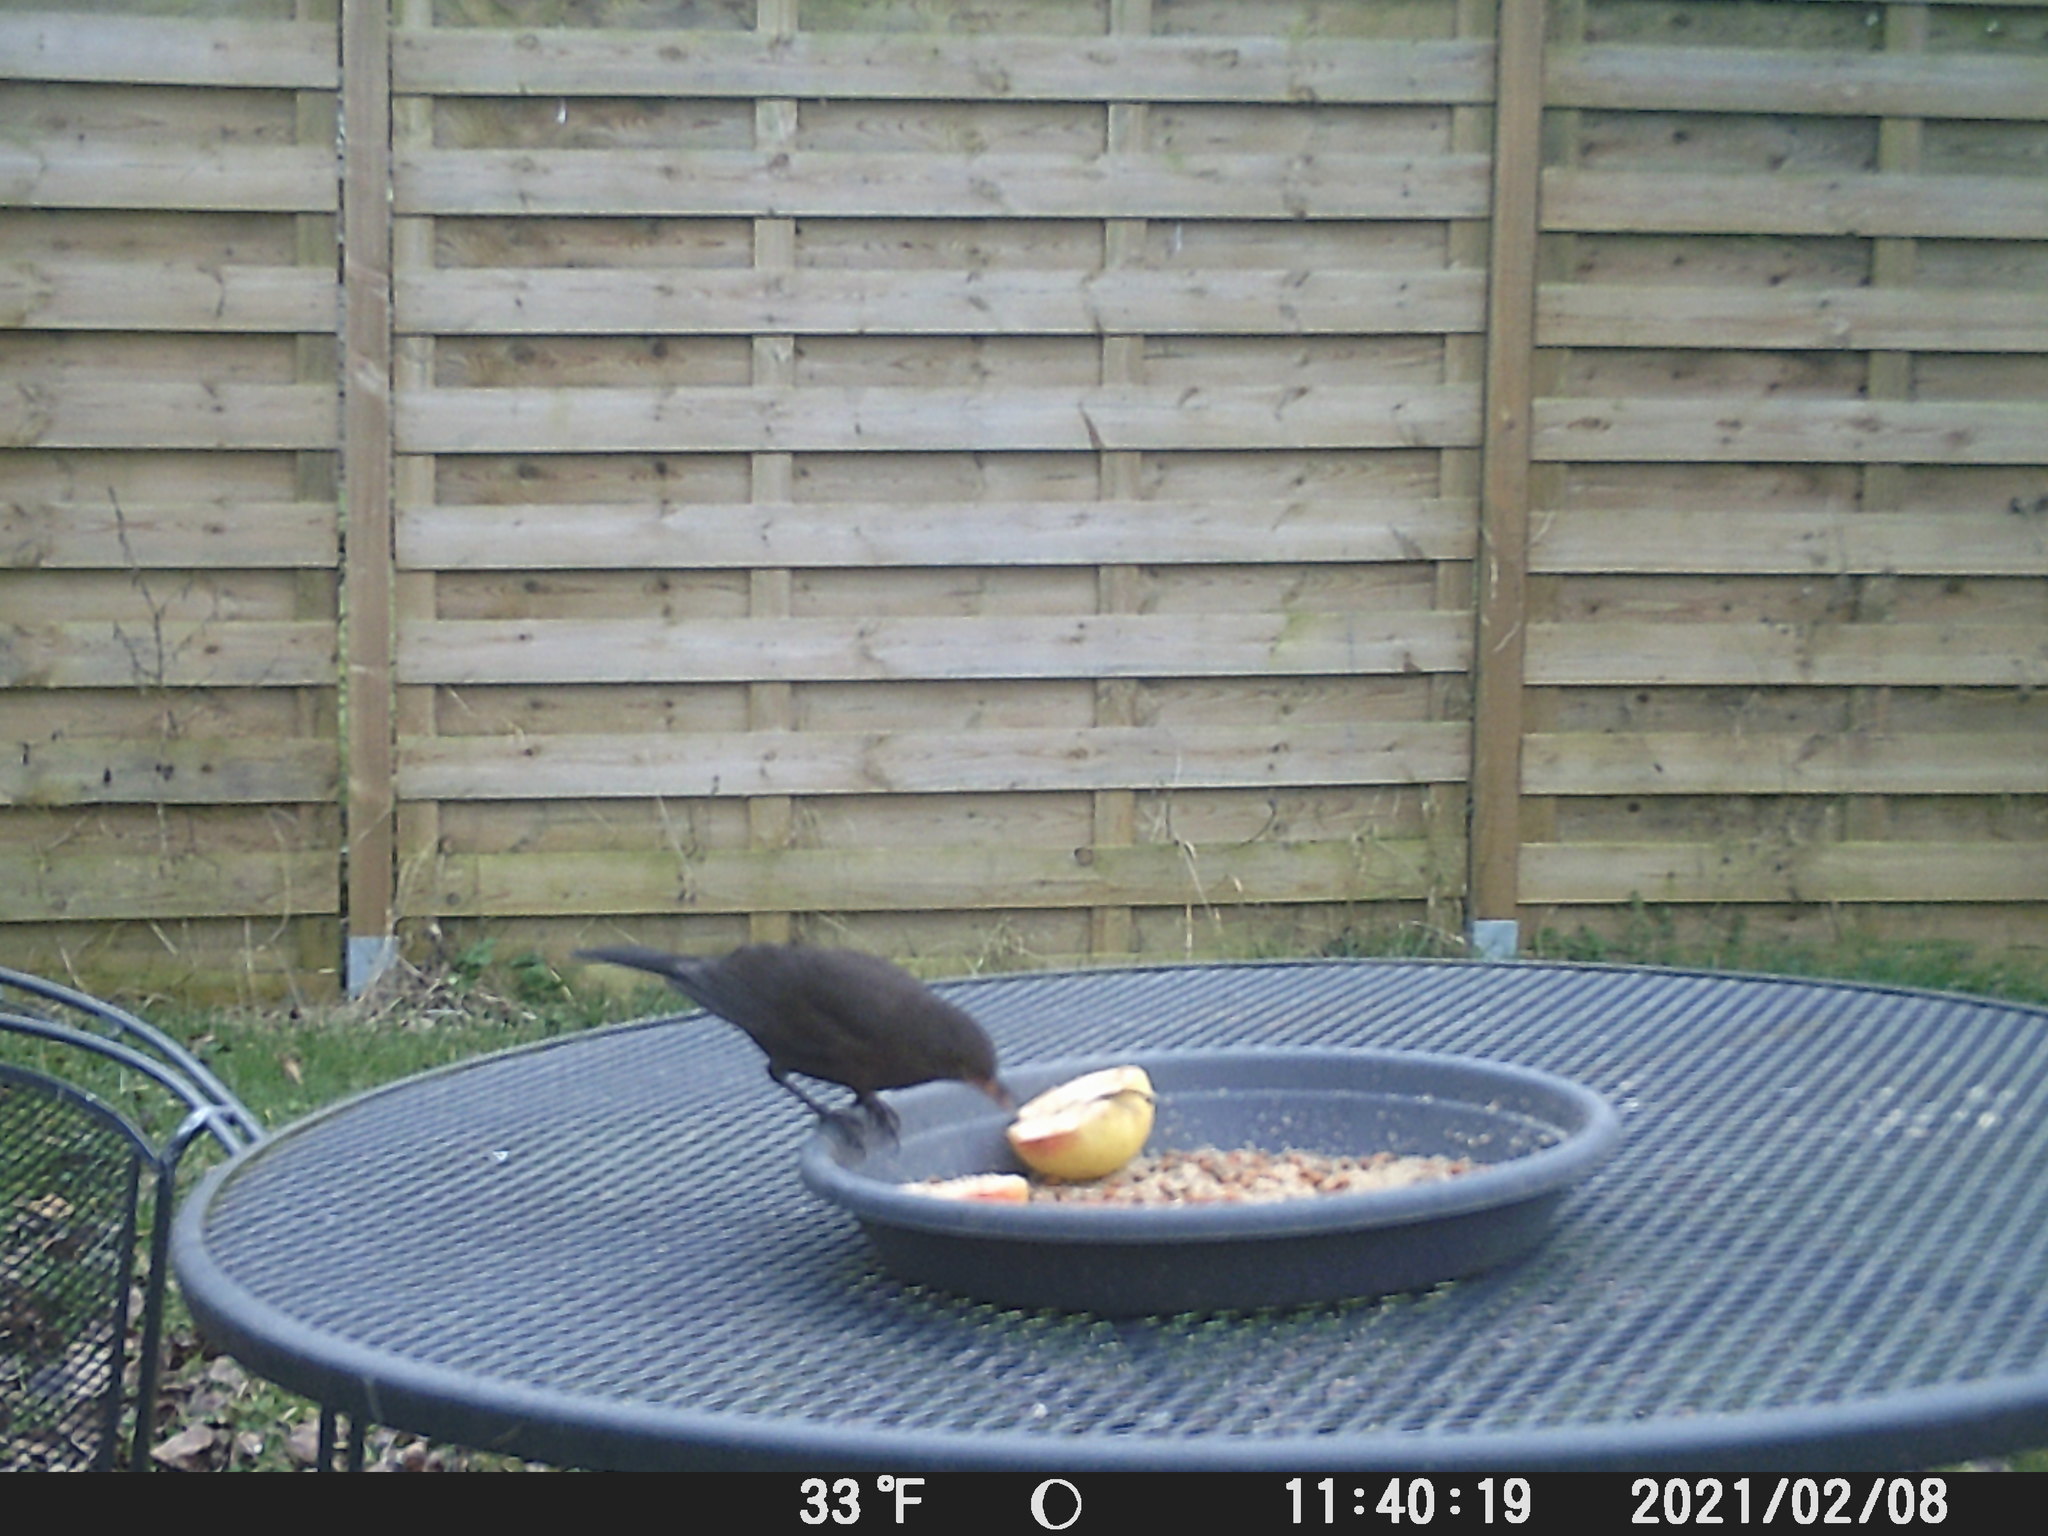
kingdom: Animalia
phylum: Chordata
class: Aves
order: Passeriformes
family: Turdidae
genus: Turdus
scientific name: Turdus merula
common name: Common blackbird
